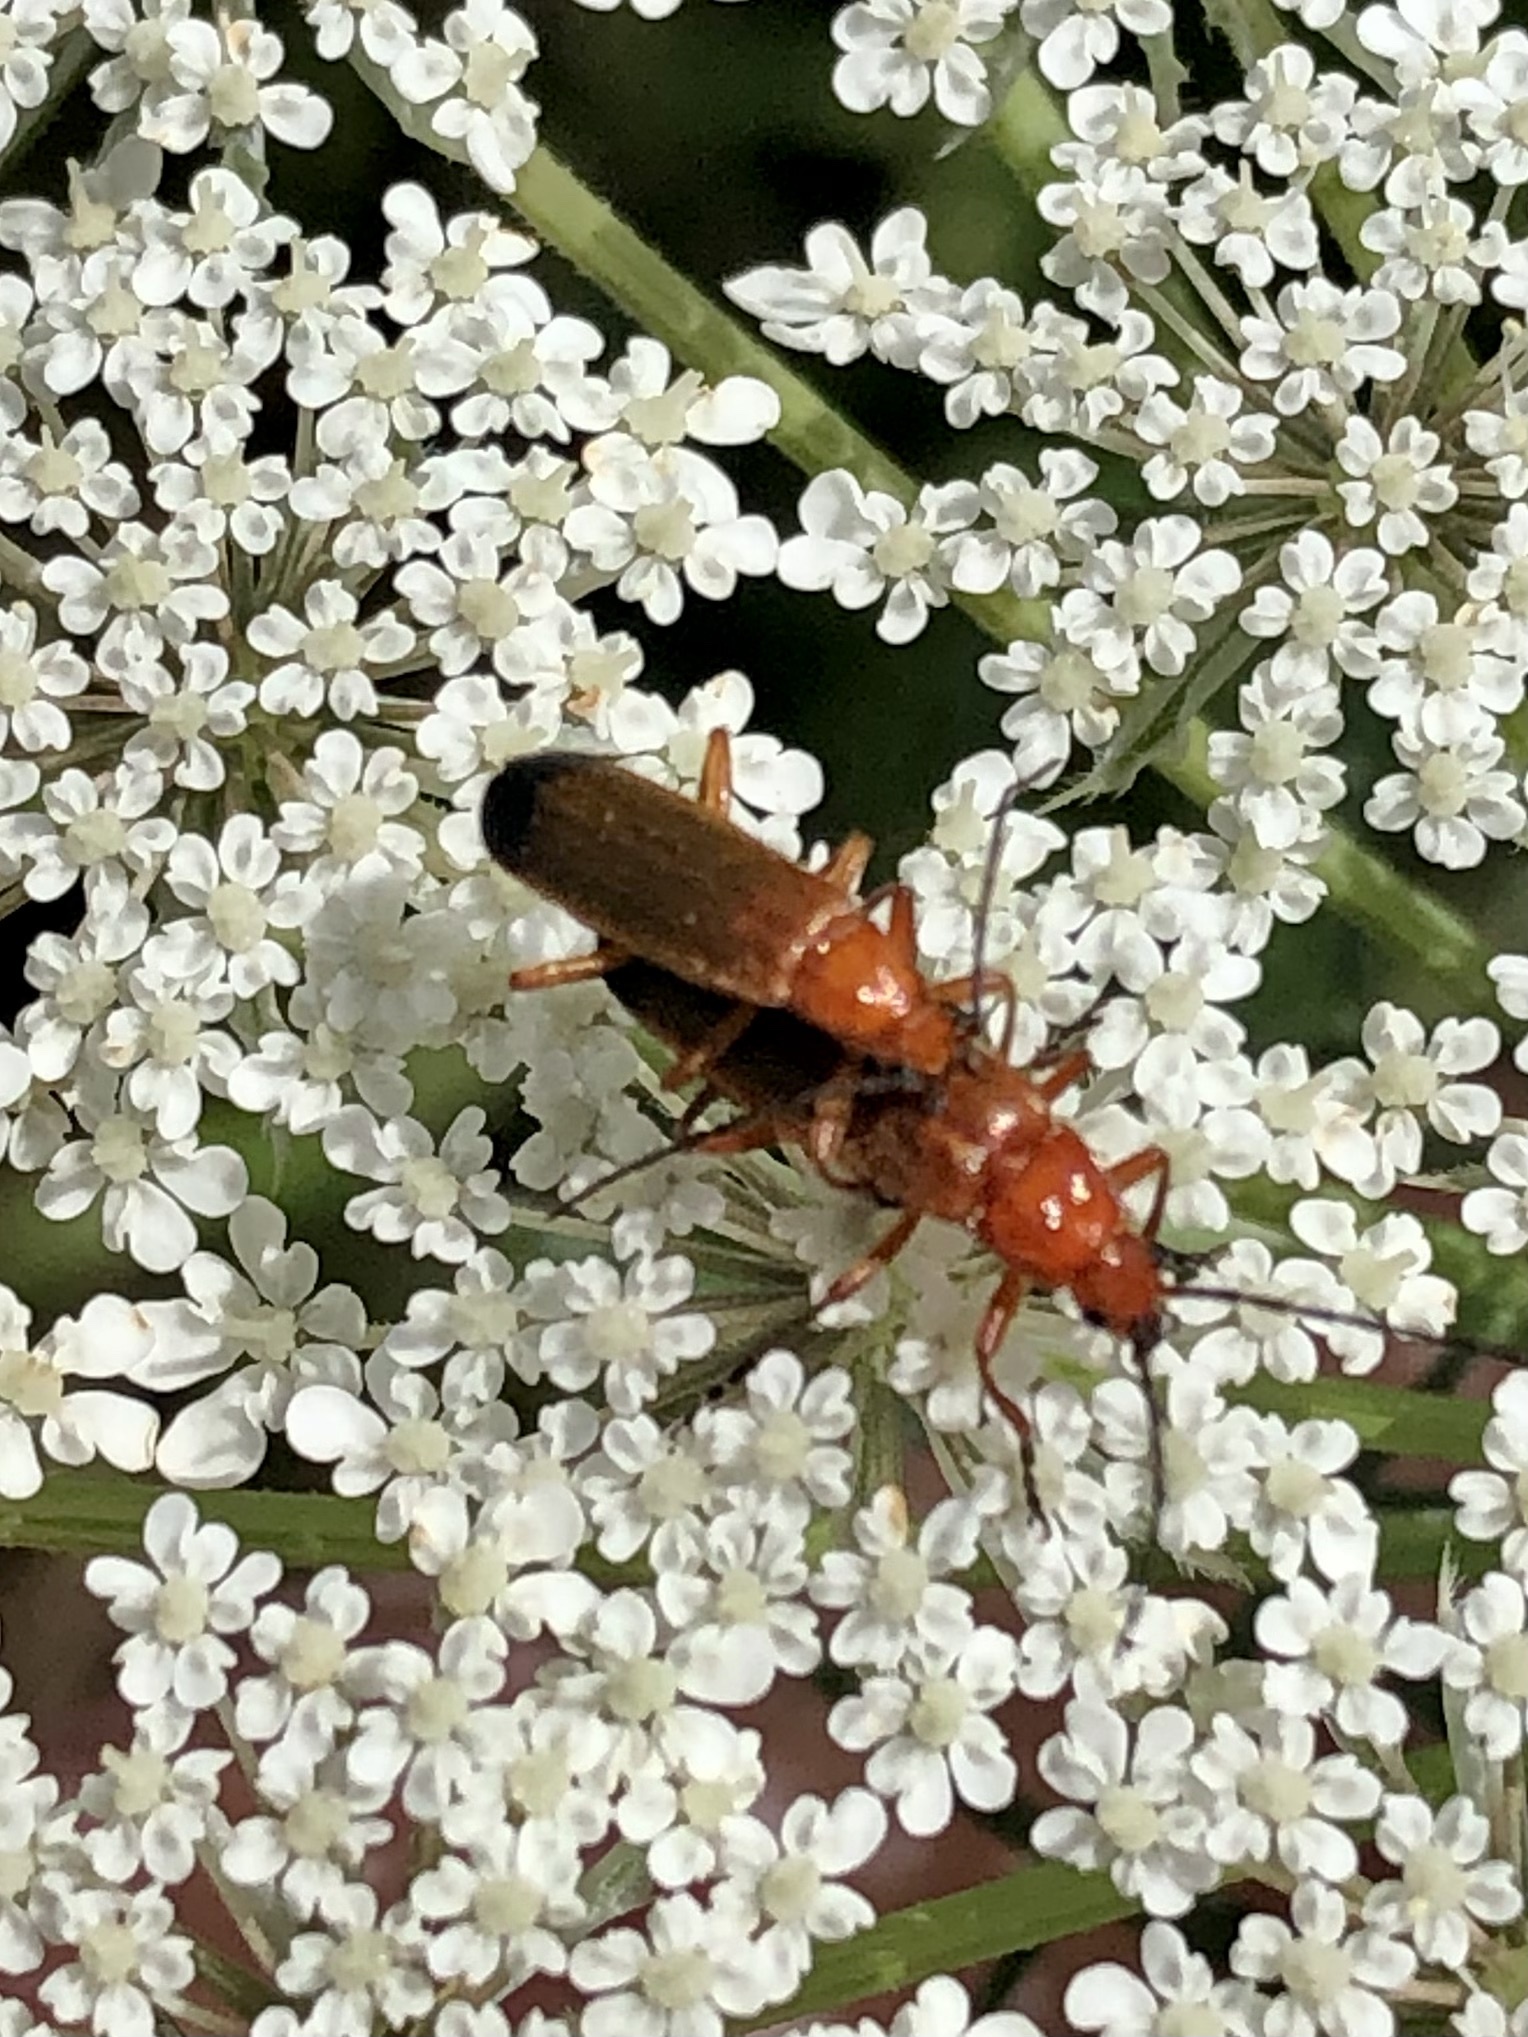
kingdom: Animalia
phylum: Arthropoda
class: Insecta
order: Coleoptera
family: Cantharidae
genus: Rhagonycha
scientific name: Rhagonycha fulva
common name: Common red soldier beetle
